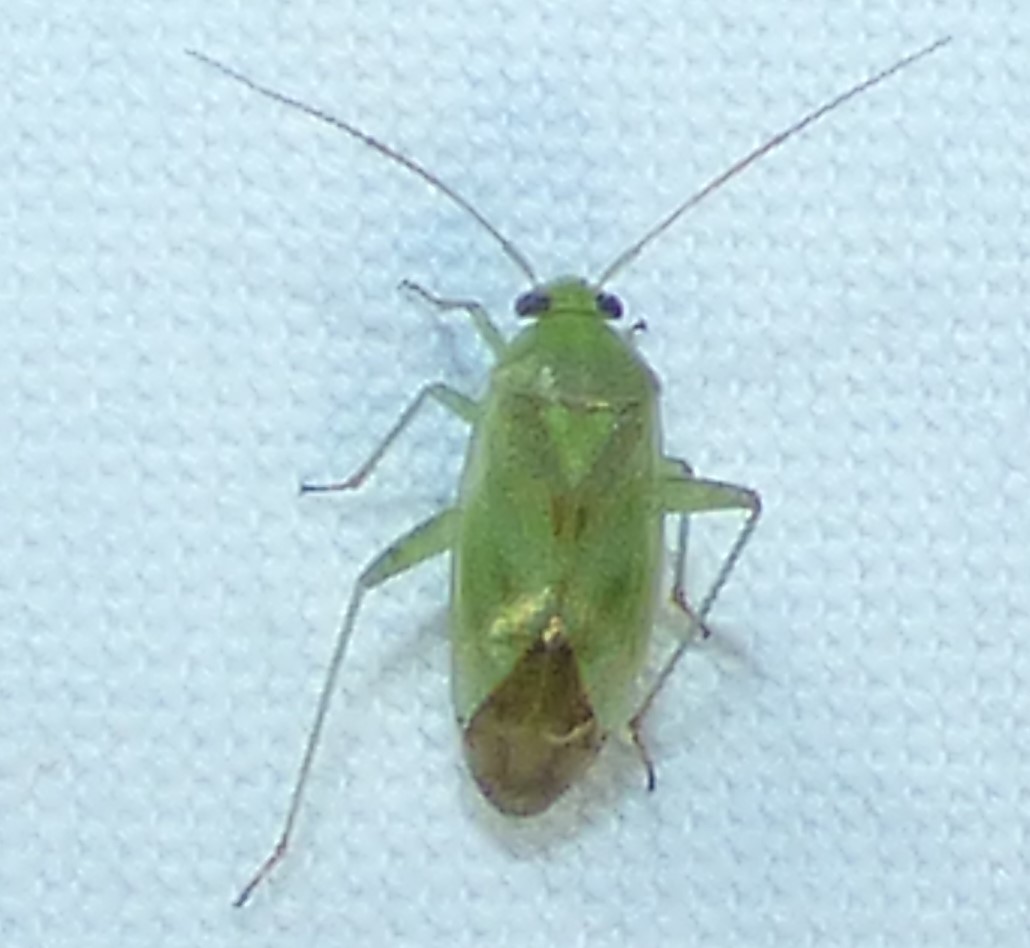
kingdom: Animalia
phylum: Arthropoda
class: Insecta
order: Hemiptera
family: Miridae
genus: Taylorilygus
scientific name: Taylorilygus apicalis
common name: Plant bug
